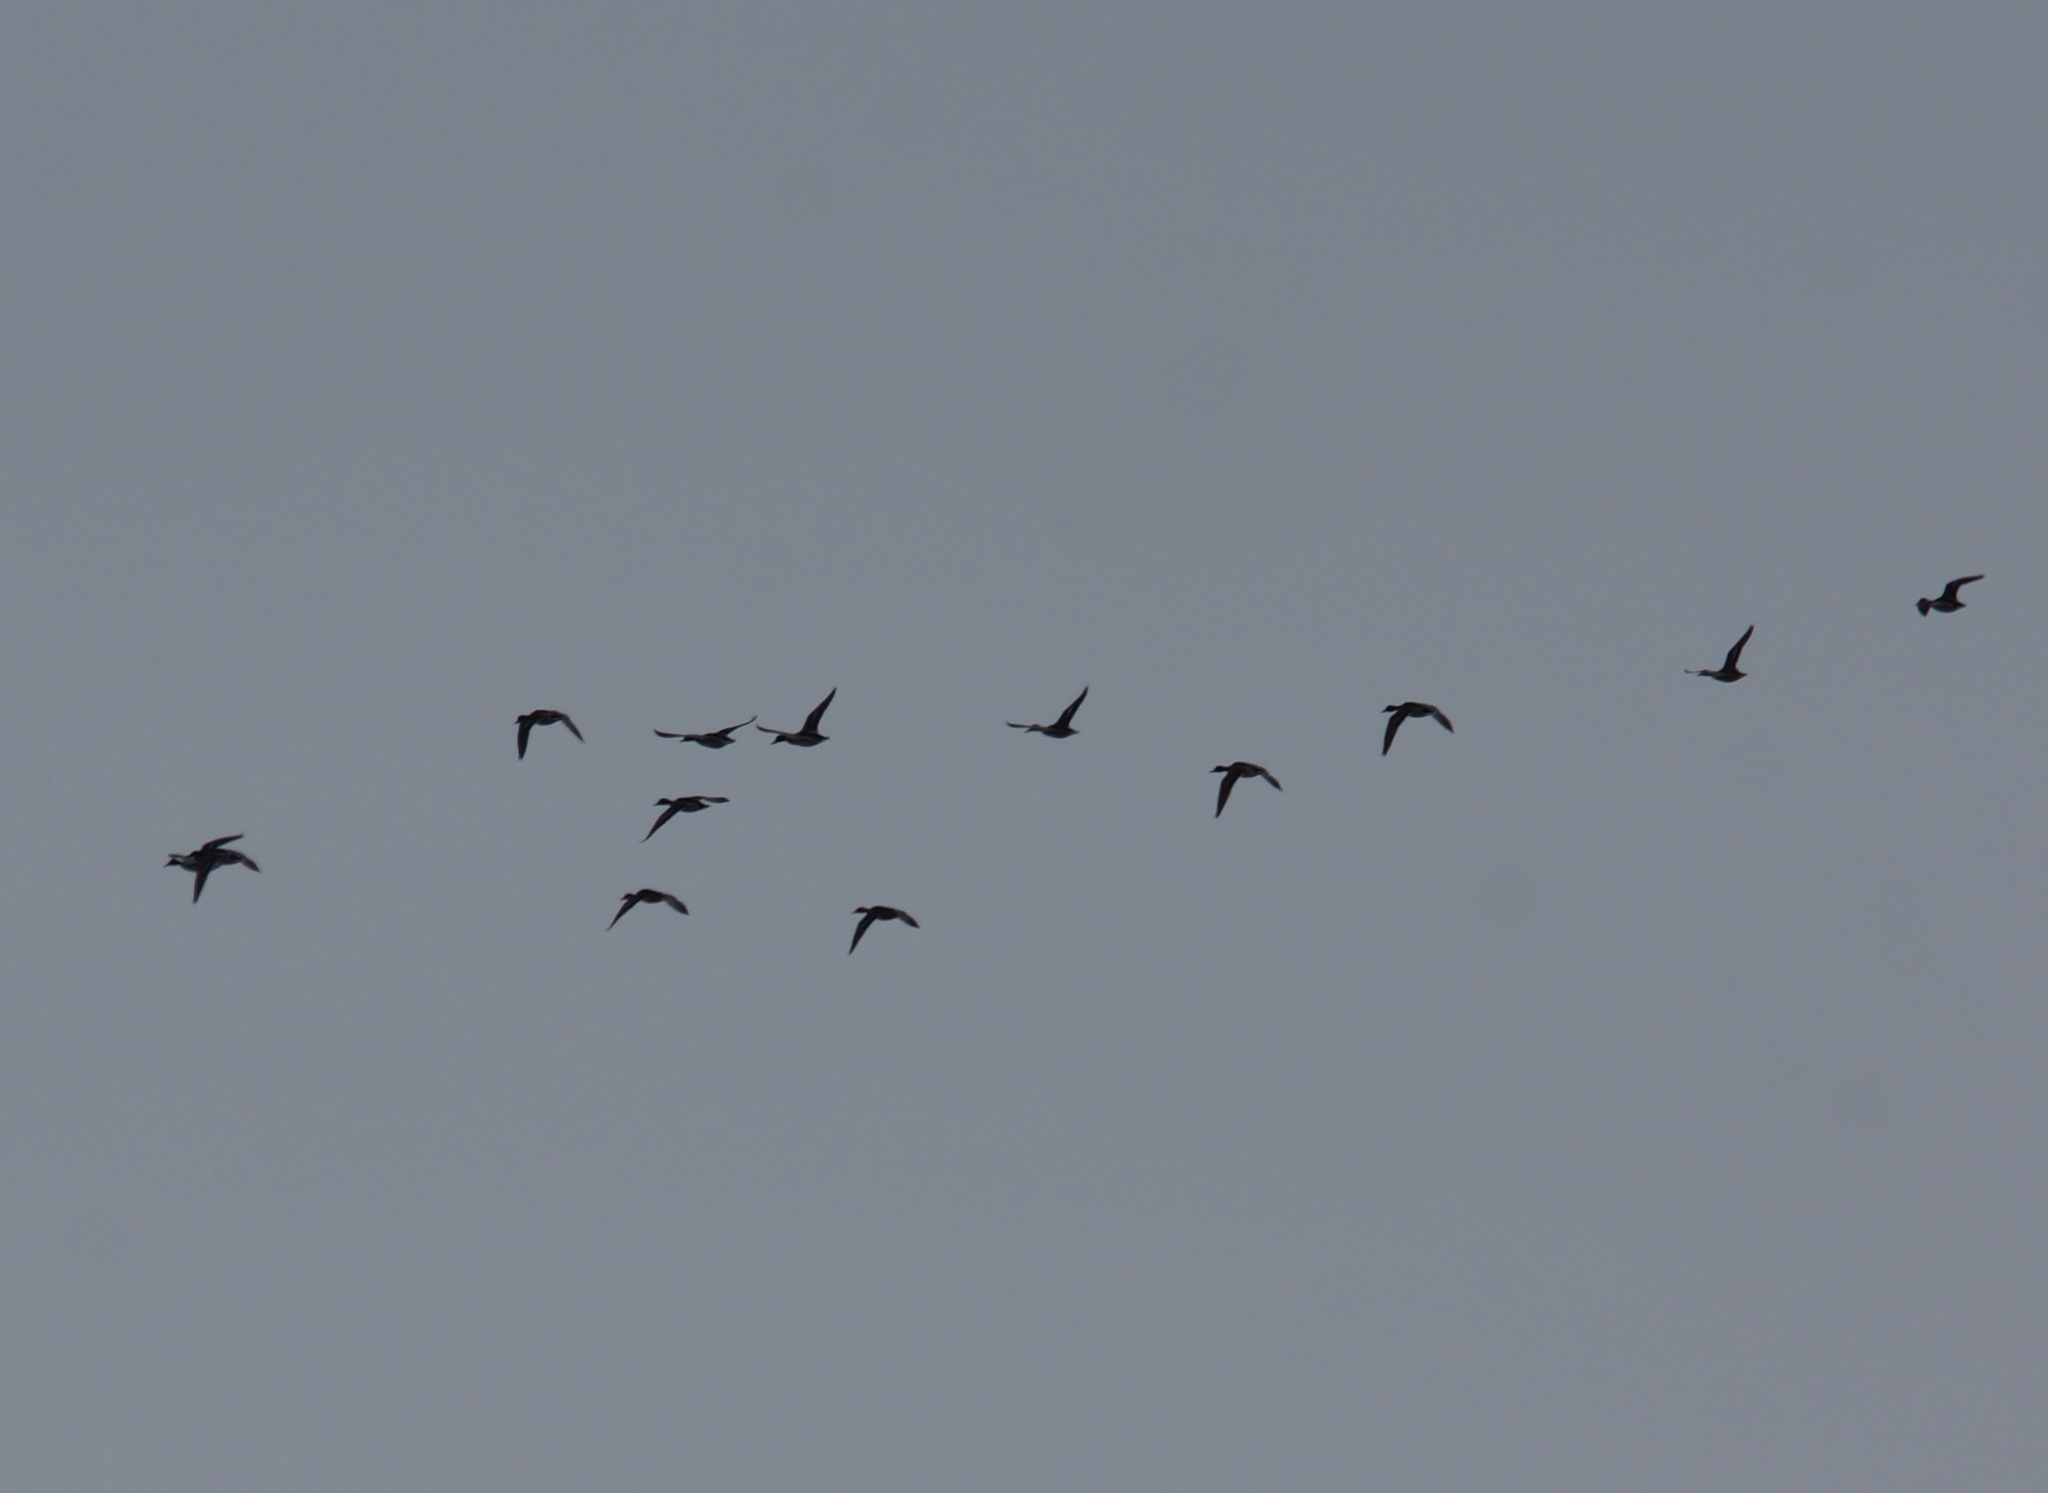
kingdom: Animalia
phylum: Chordata
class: Aves
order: Anseriformes
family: Anatidae
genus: Anas
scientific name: Anas platyrhynchos
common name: Mallard
